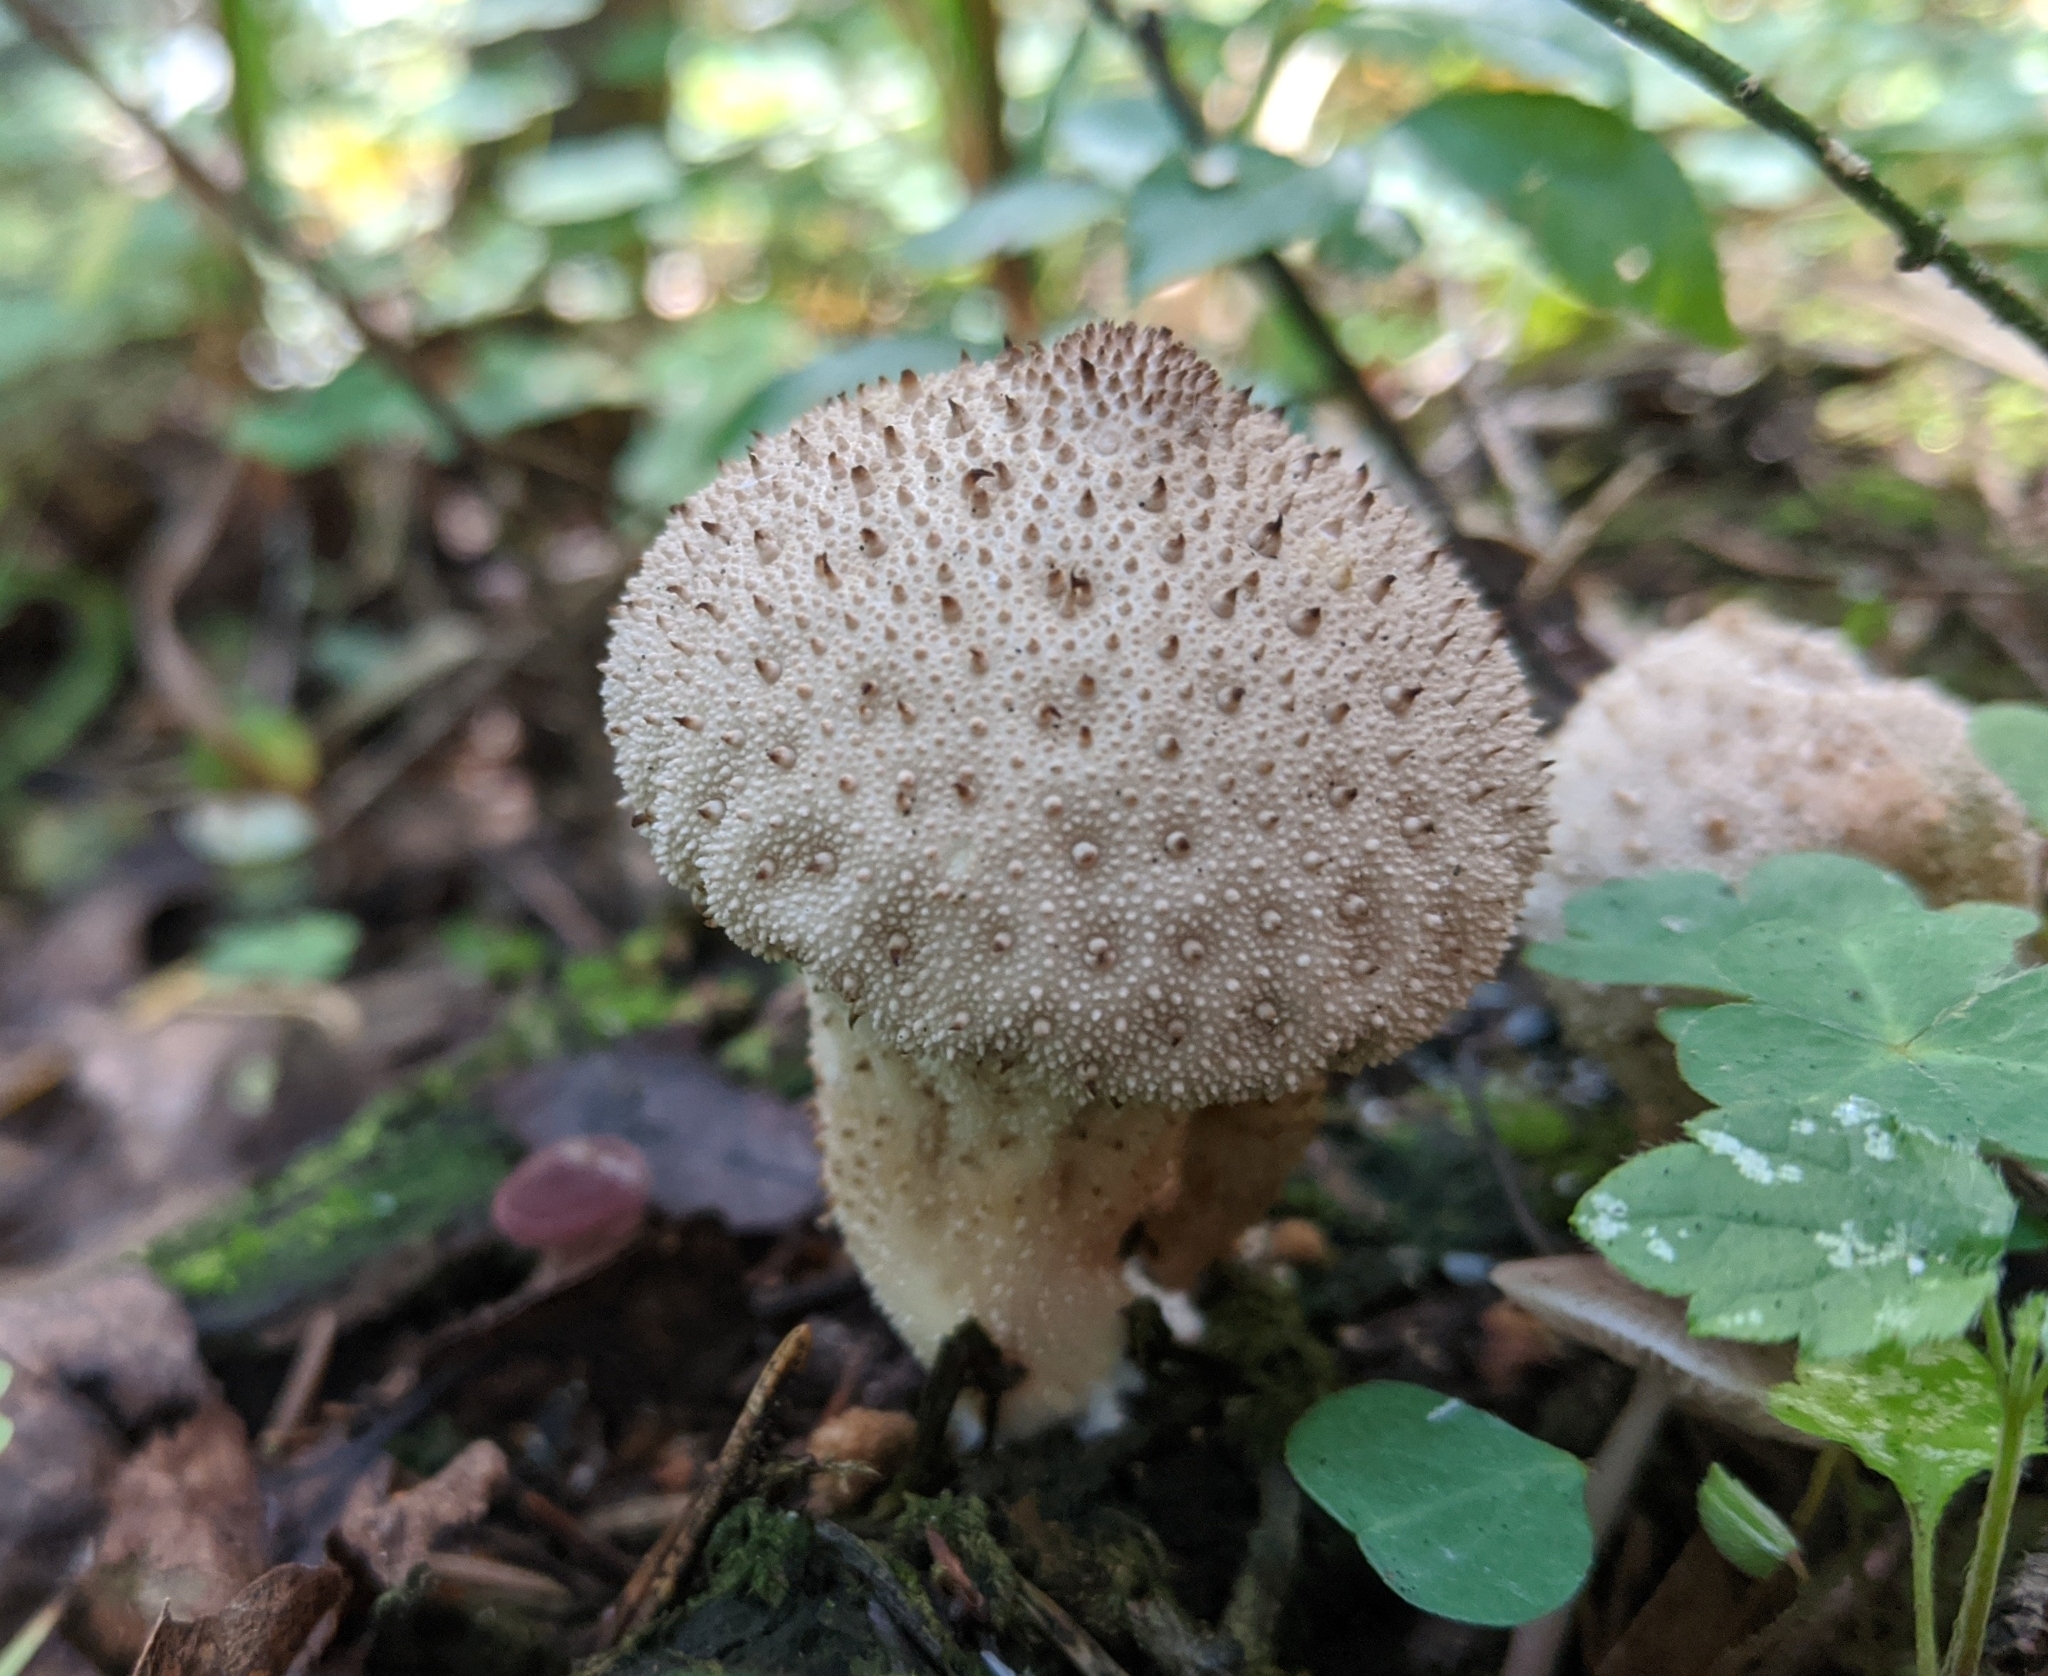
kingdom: Fungi
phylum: Basidiomycota
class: Agaricomycetes
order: Agaricales
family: Lycoperdaceae
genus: Lycoperdon
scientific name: Lycoperdon perlatum
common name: Common puffball
